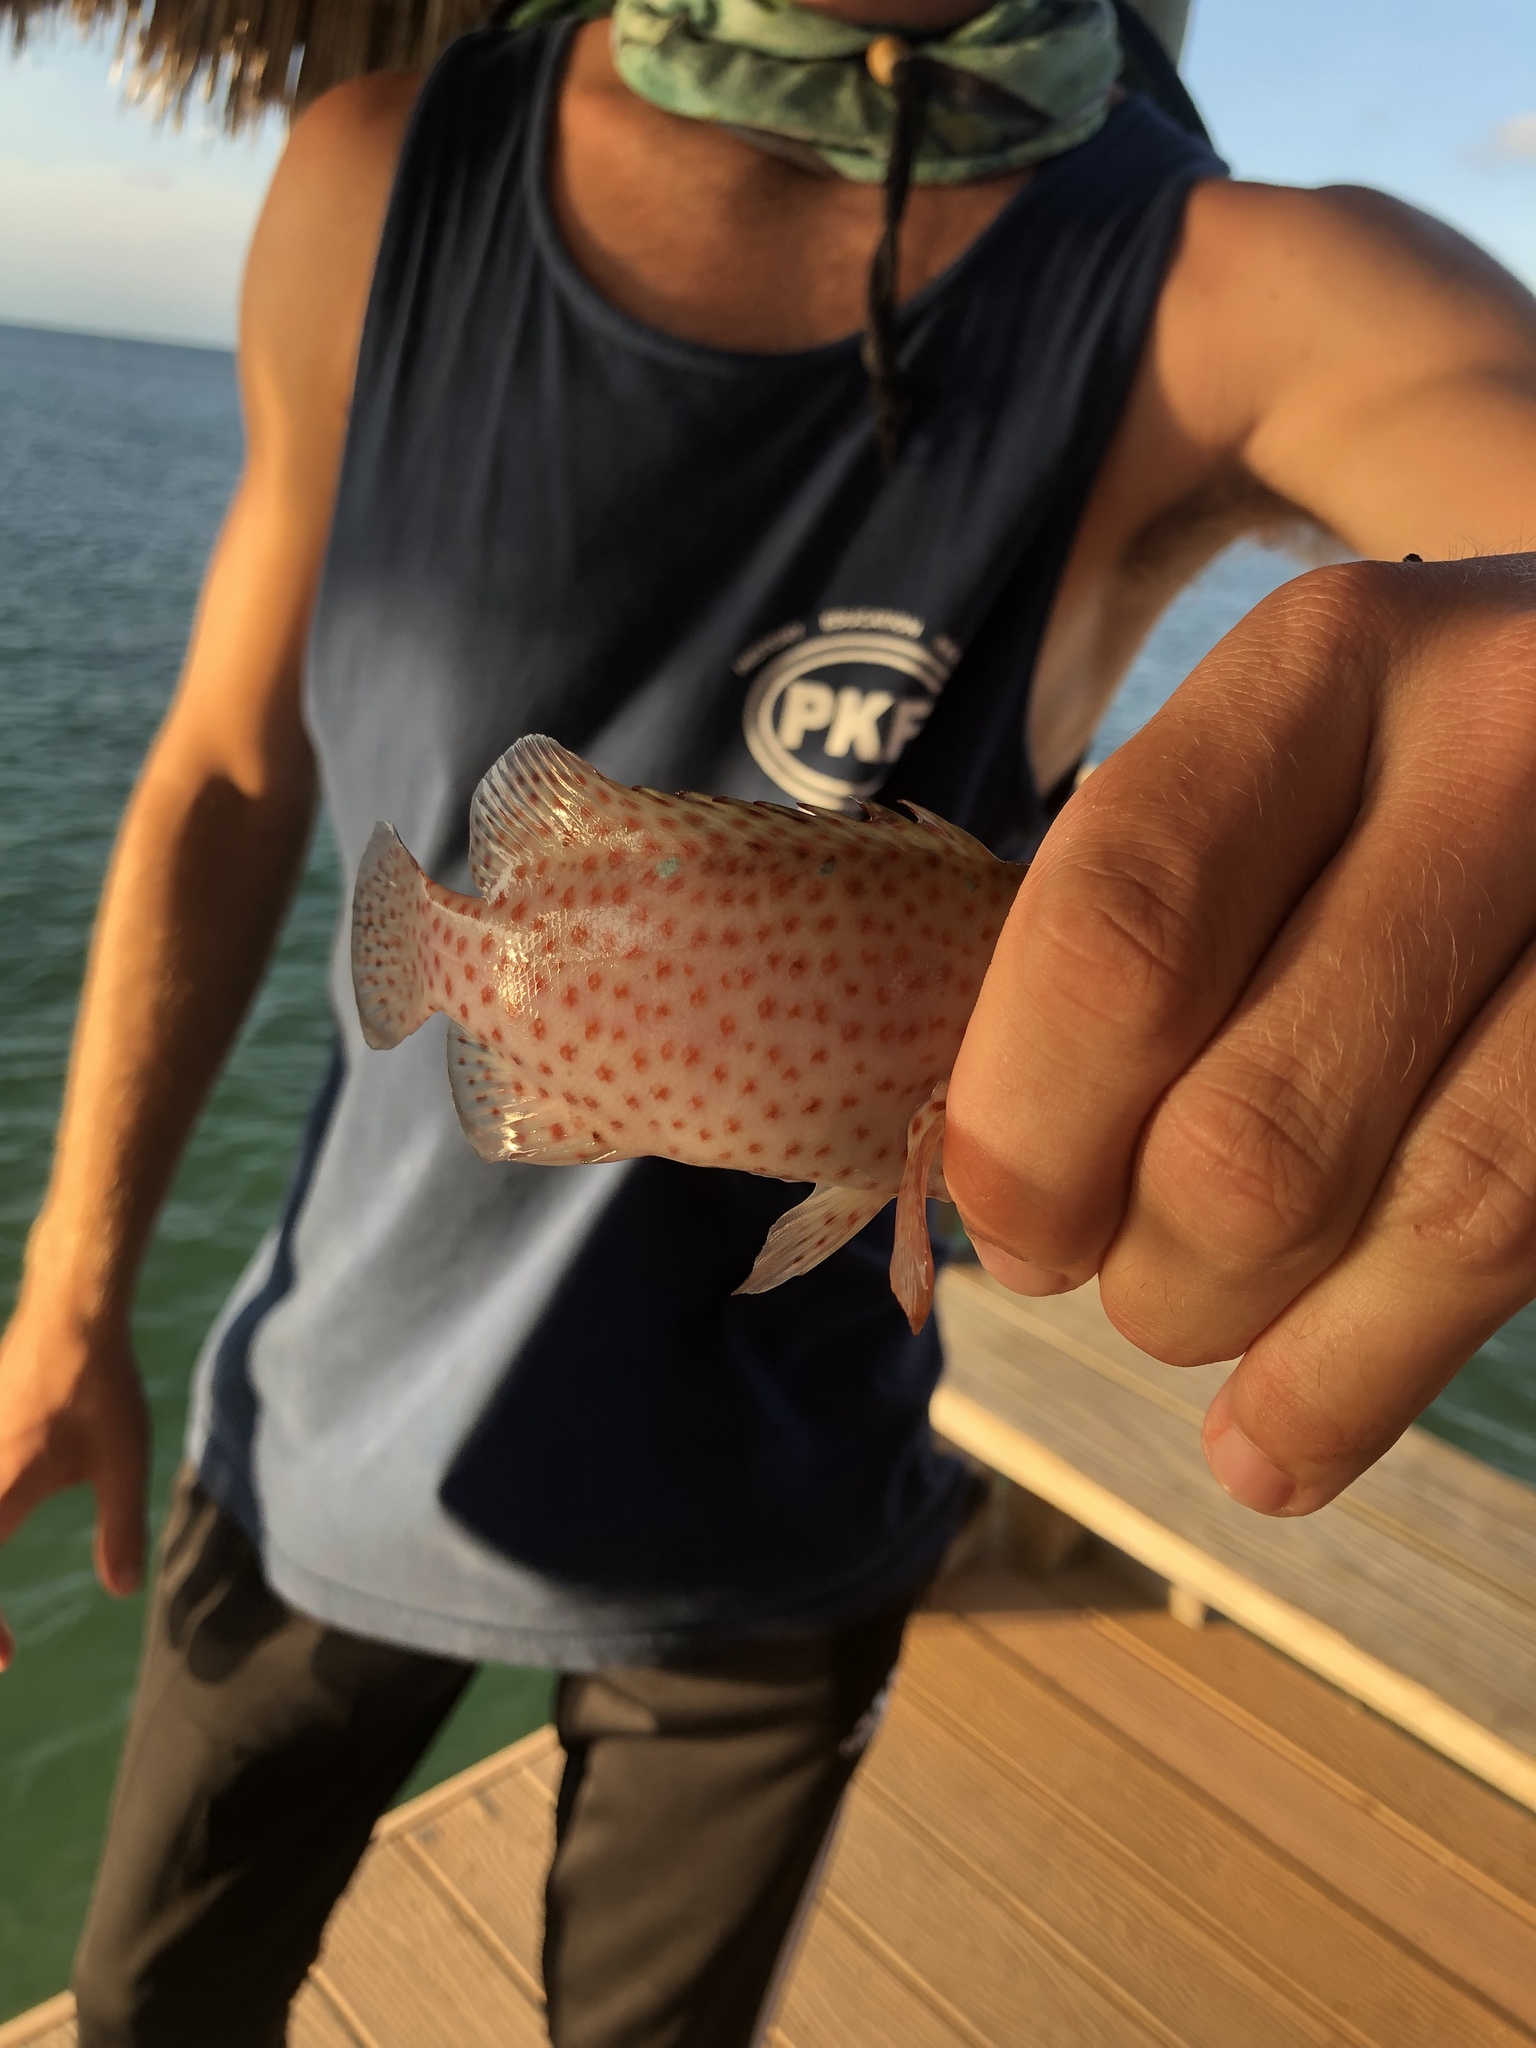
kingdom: Animalia
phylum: Chordata
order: Perciformes
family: Serranidae
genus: Cephalopholis
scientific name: Cephalopholis cruentata
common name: Graysby
